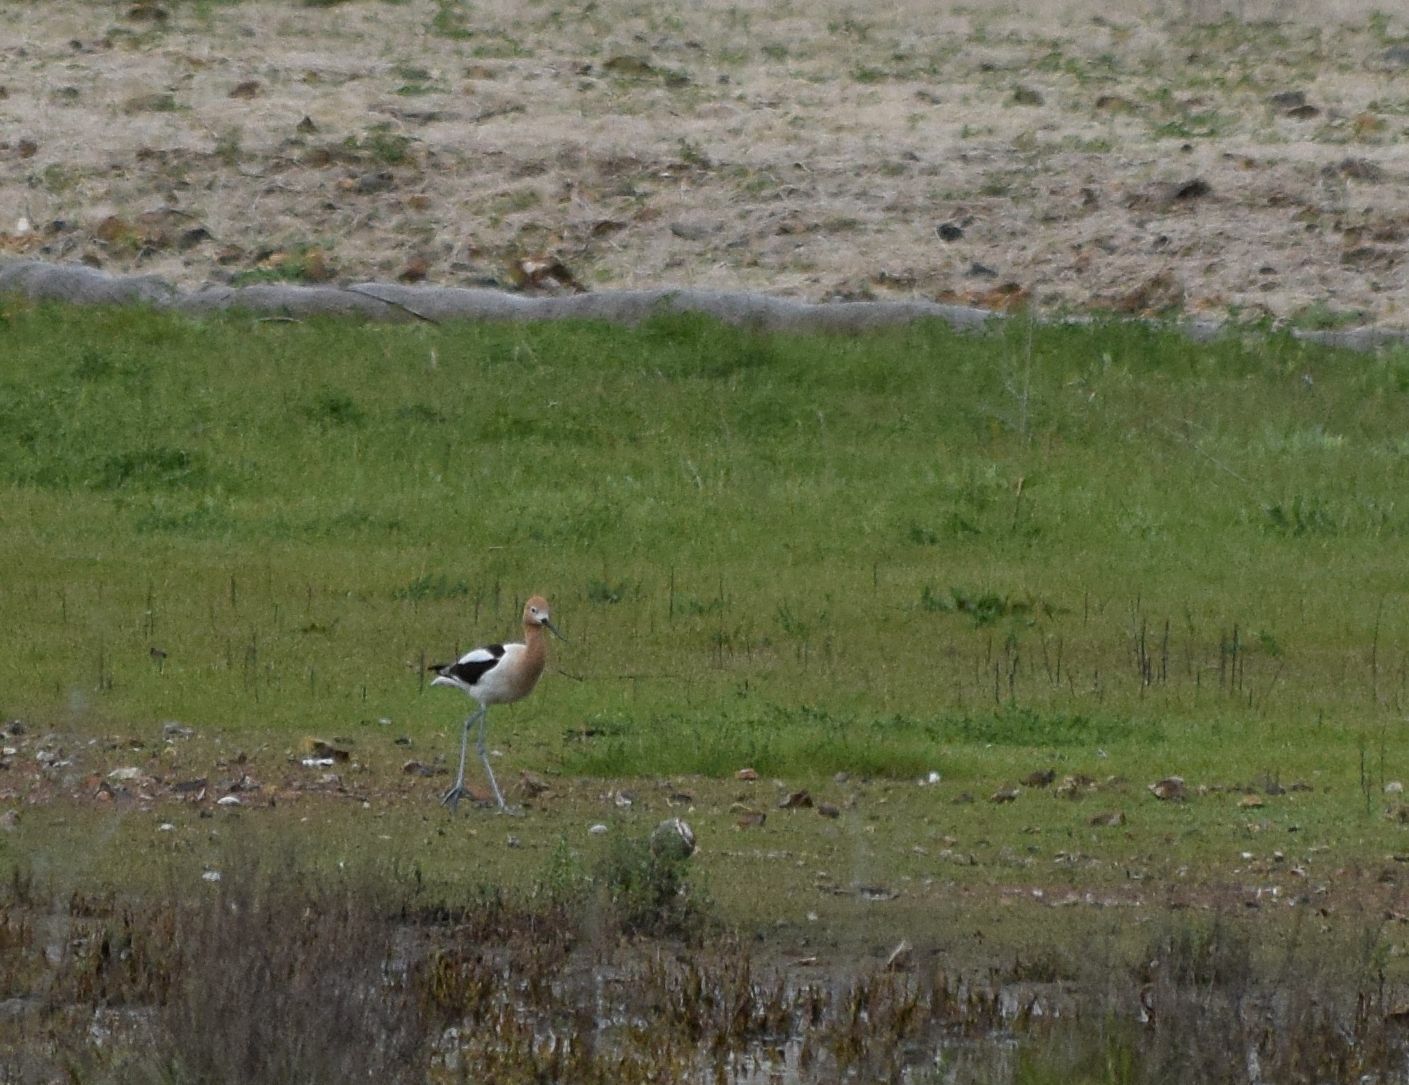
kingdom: Animalia
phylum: Chordata
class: Aves
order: Charadriiformes
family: Recurvirostridae
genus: Recurvirostra
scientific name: Recurvirostra americana
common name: American avocet
